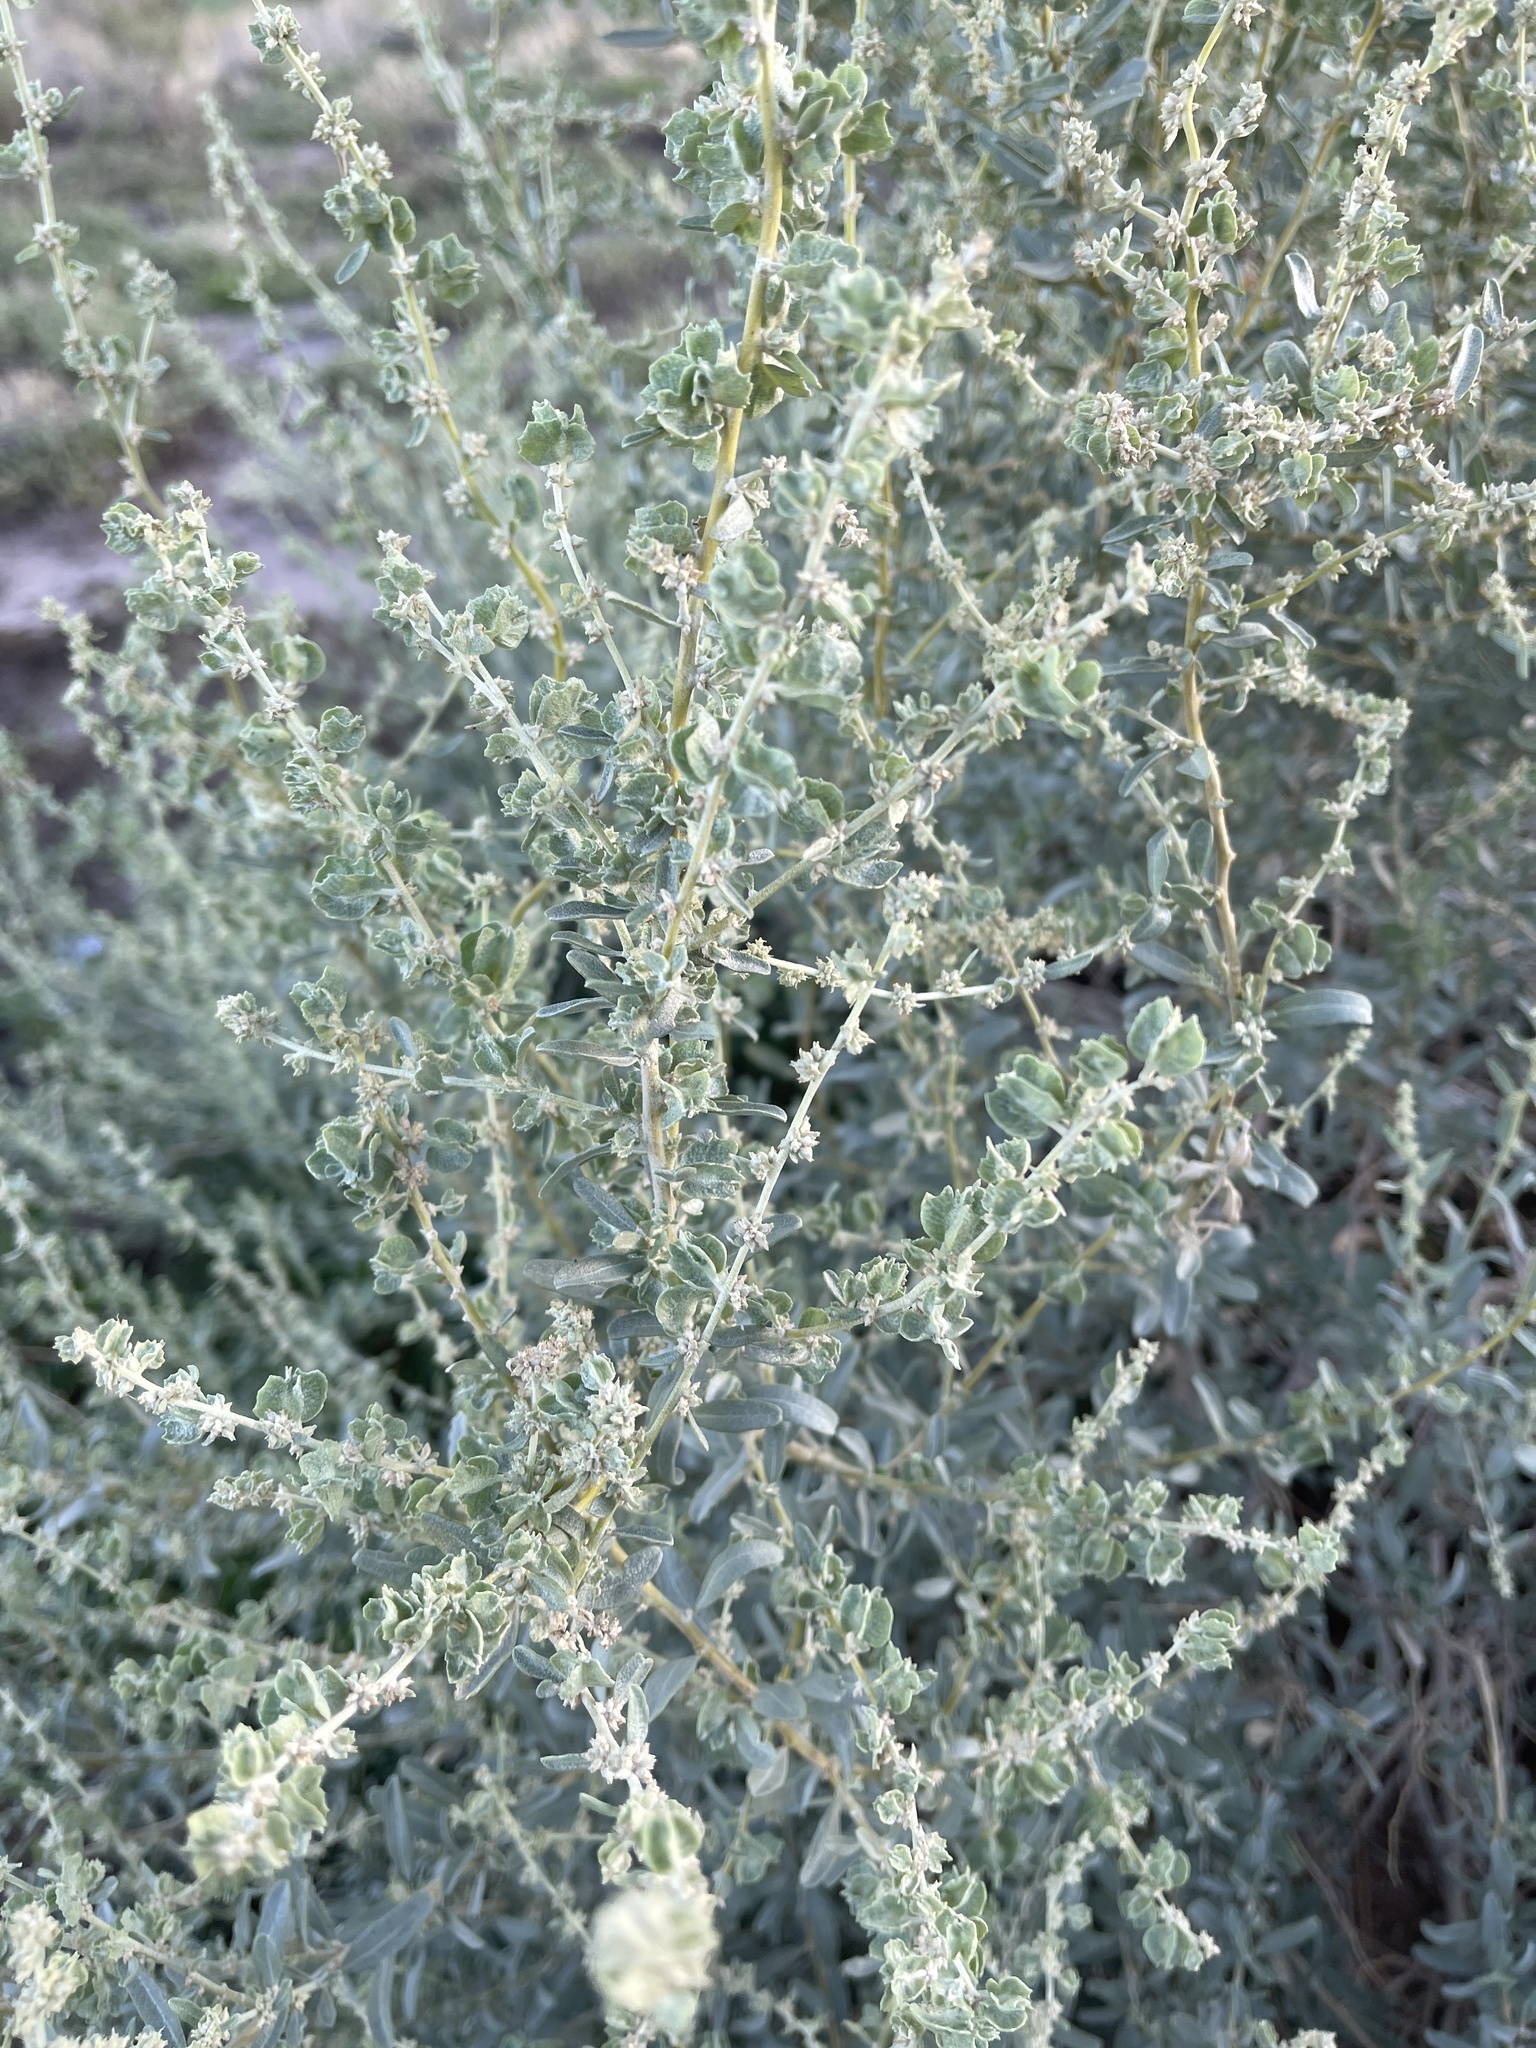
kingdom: Plantae
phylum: Tracheophyta
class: Magnoliopsida
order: Caryophyllales
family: Amaranthaceae
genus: Atriplex
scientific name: Atriplex canescens
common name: Four-wing saltbush
